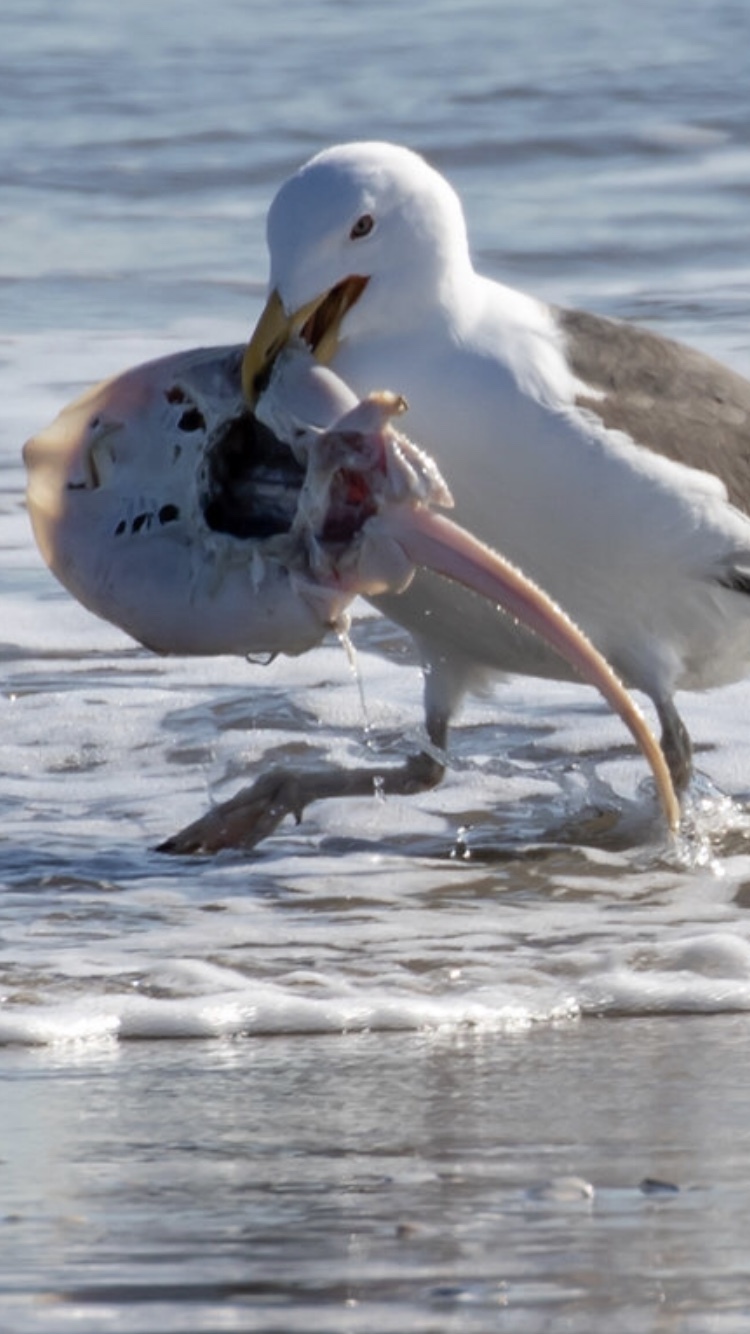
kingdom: Animalia
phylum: Chordata
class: Elasmobranchii
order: Rajiformes
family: Rajidae
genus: Leucoraja
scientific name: Leucoraja erinacea
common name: Little skate
